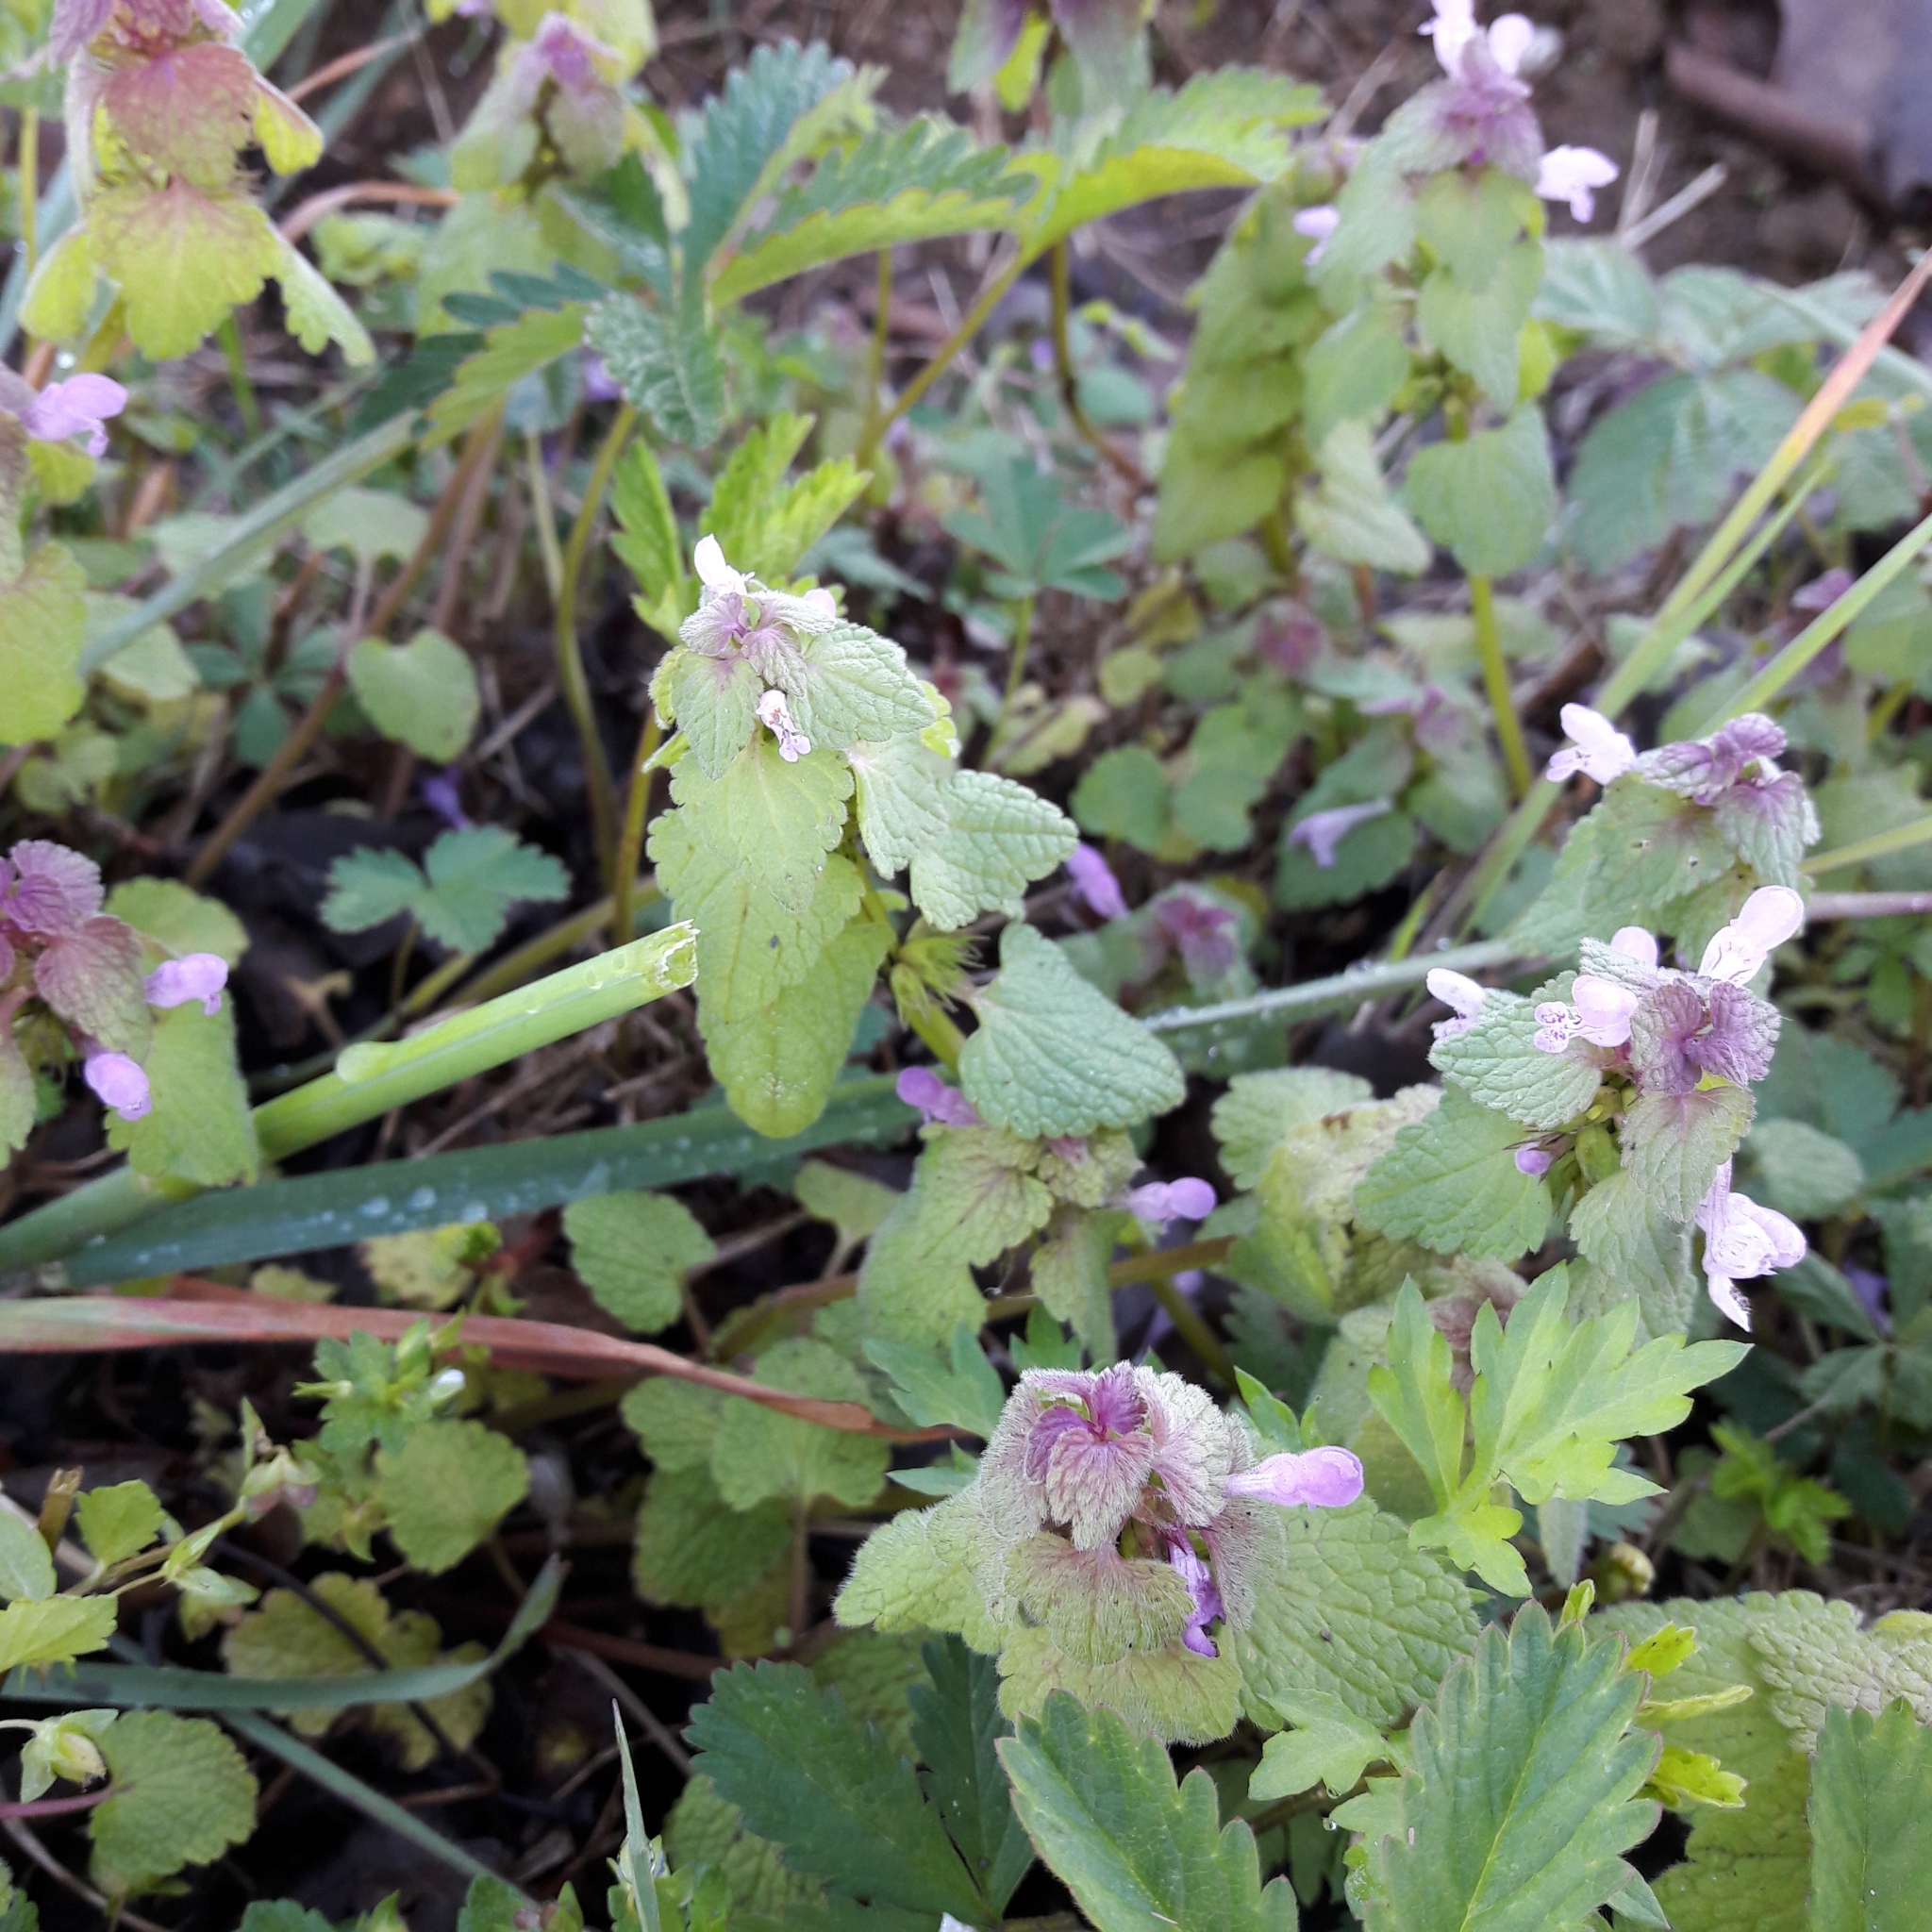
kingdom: Plantae
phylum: Tracheophyta
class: Magnoliopsida
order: Lamiales
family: Lamiaceae
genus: Lamium
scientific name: Lamium purpureum
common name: Red dead-nettle
